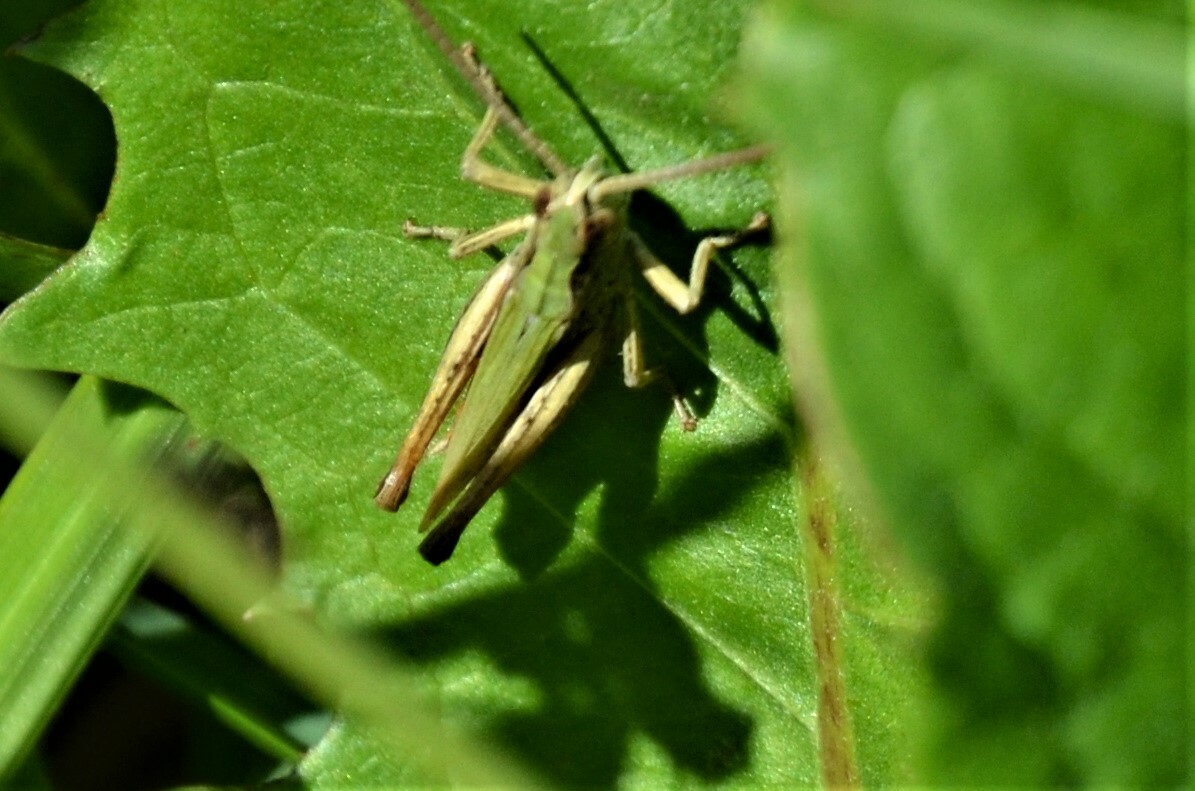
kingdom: Animalia
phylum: Arthropoda
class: Insecta
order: Orthoptera
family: Acrididae
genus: Chorthippus
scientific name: Chorthippus dorsatus
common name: Steppe grasshopper
